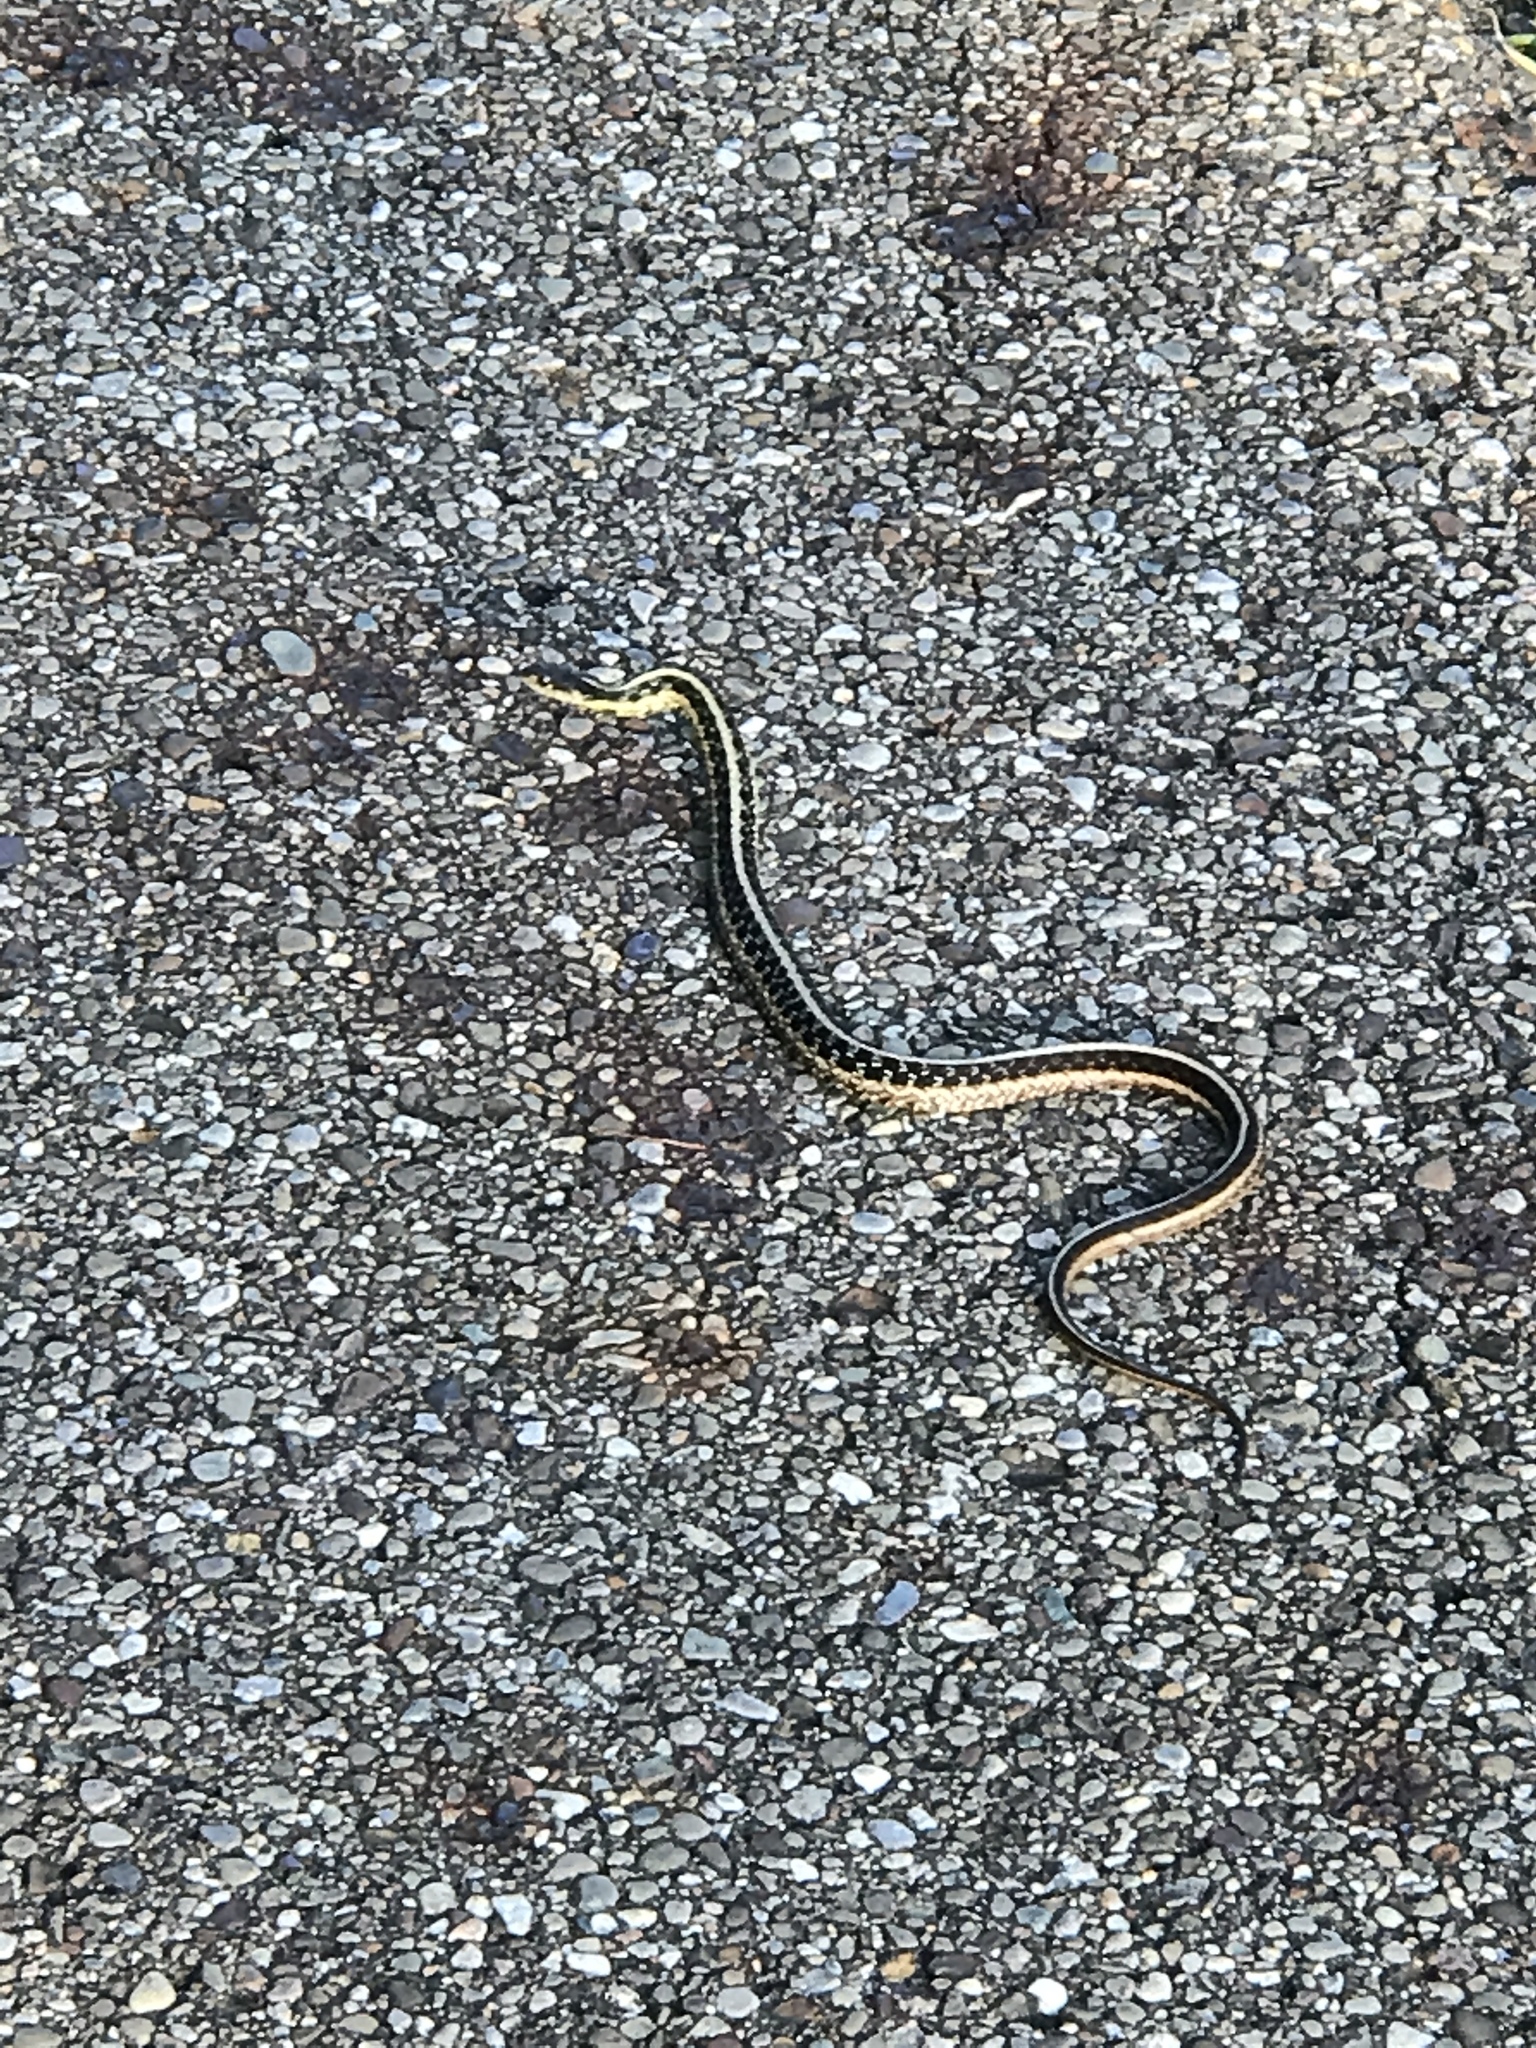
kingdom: Animalia
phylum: Chordata
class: Squamata
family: Colubridae
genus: Thamnophis
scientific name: Thamnophis sirtalis
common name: Common garter snake
